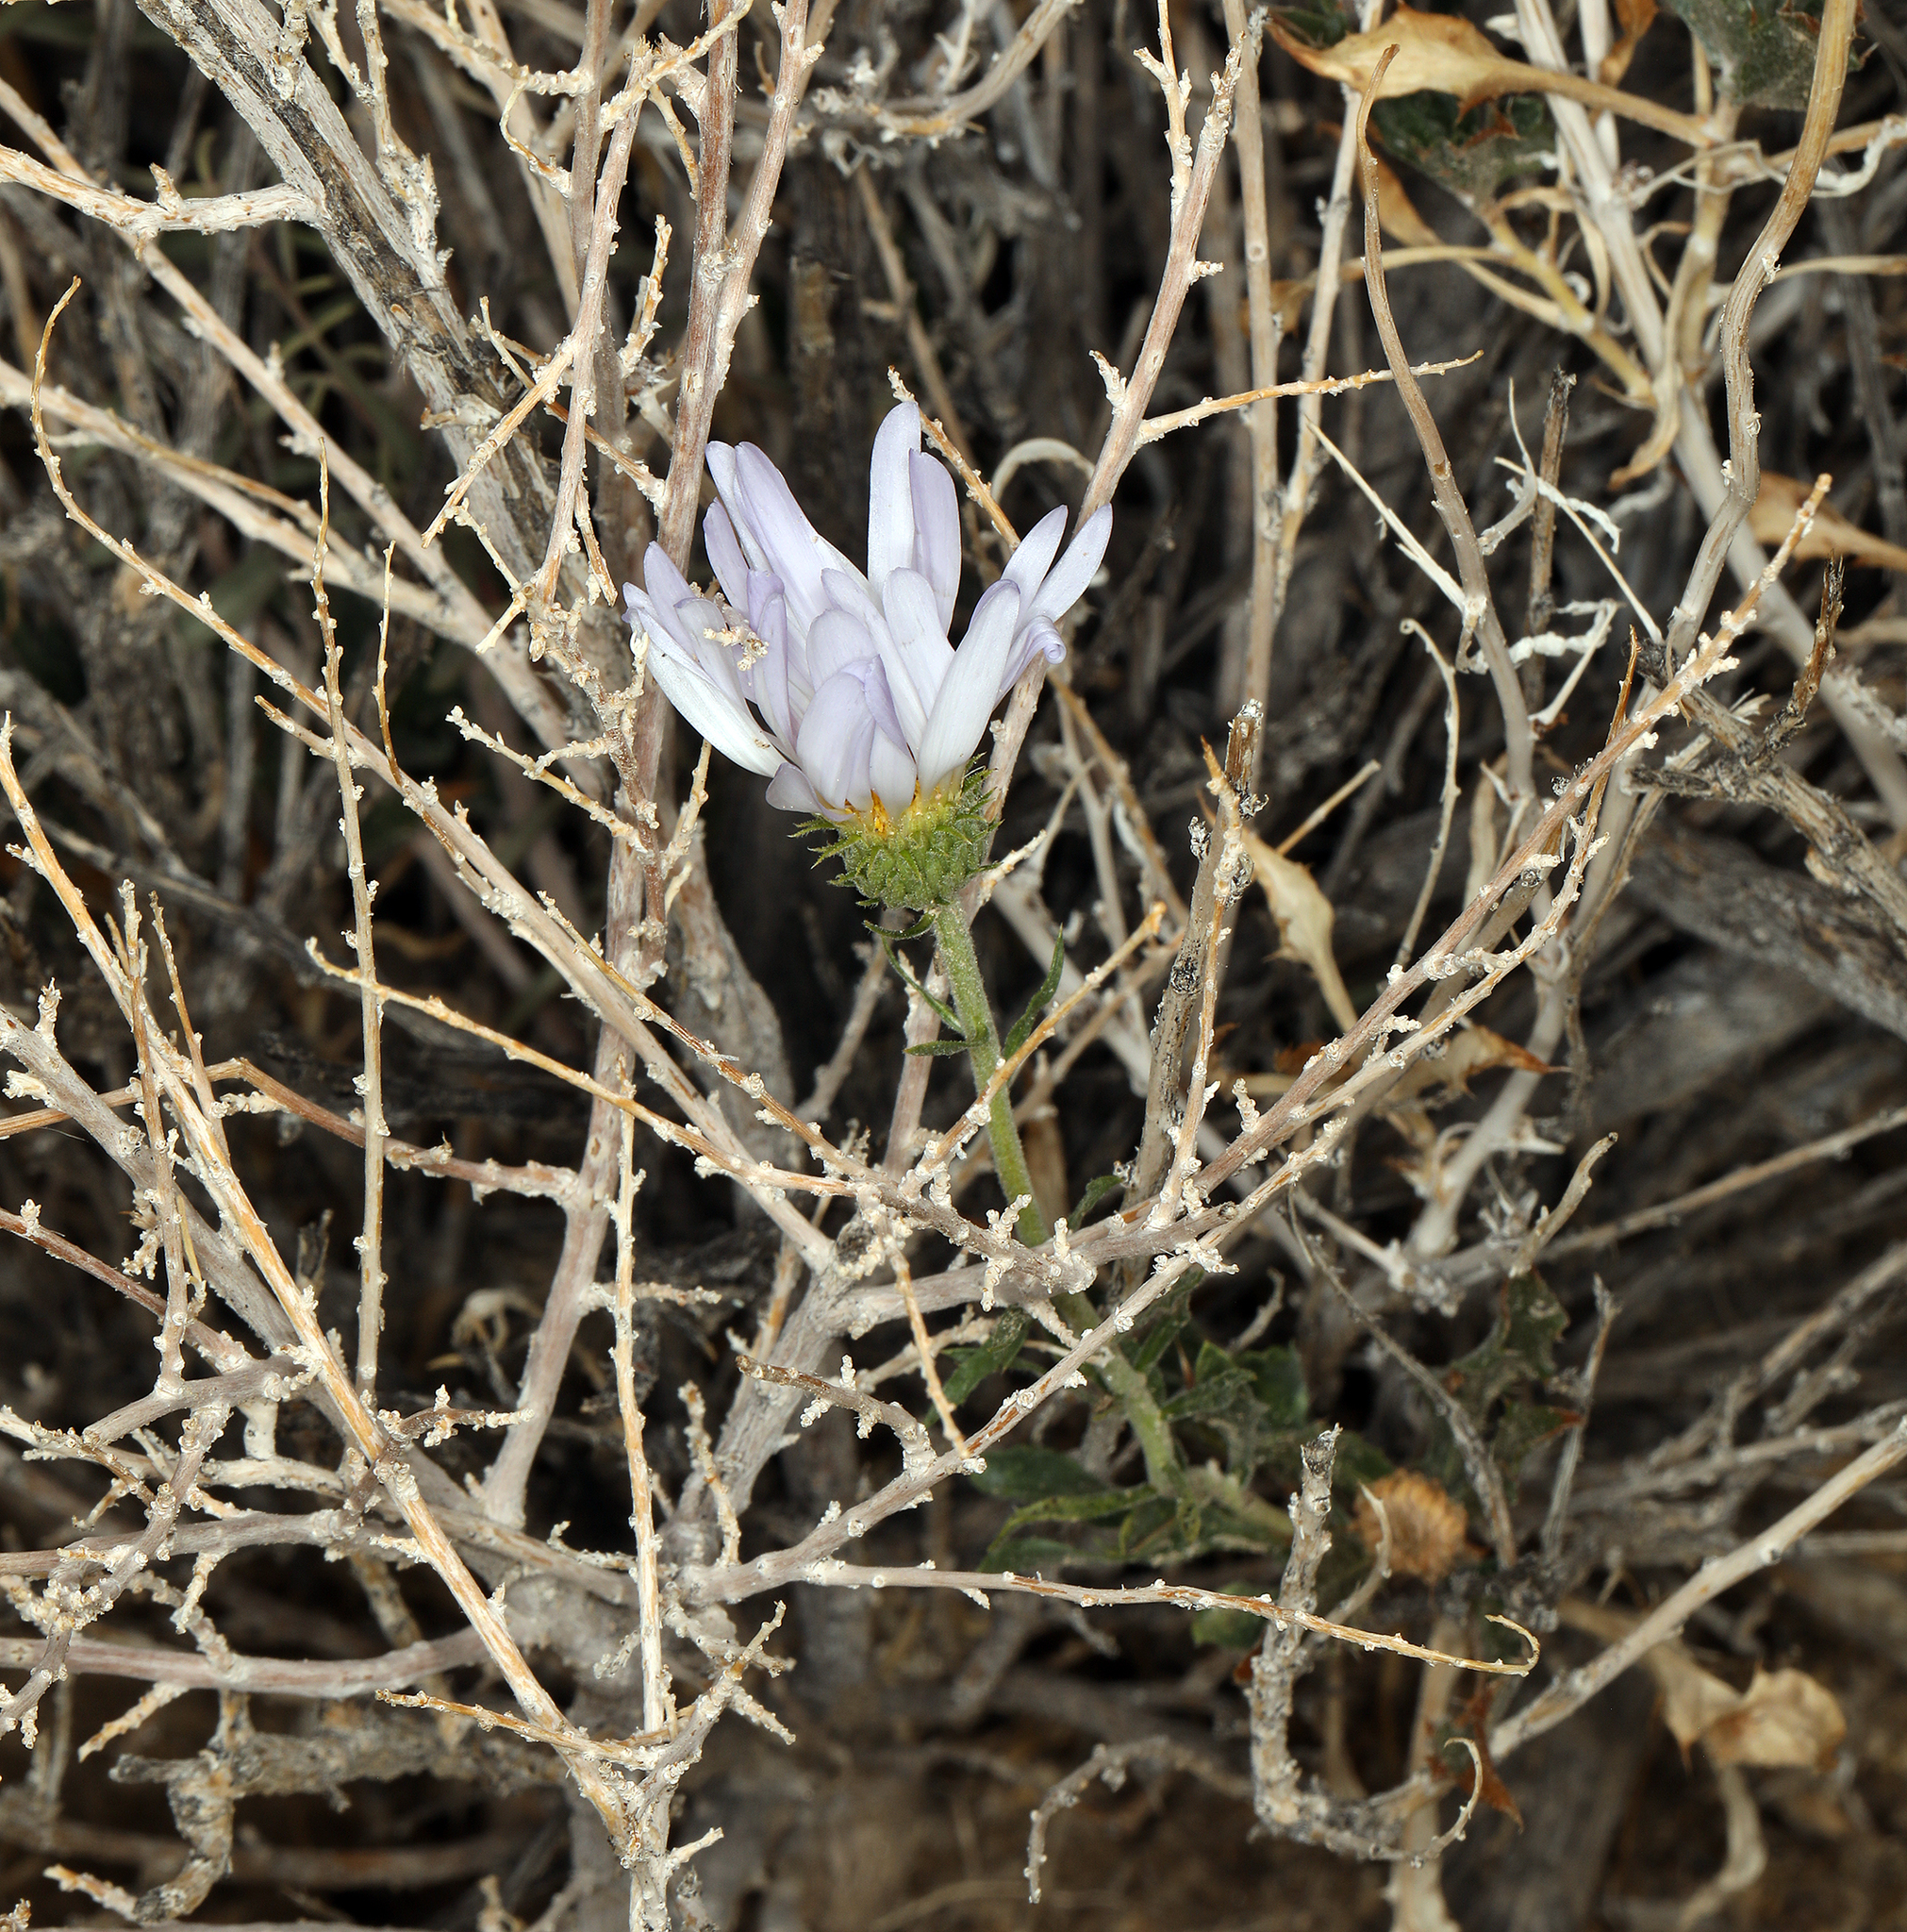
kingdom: Plantae
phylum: Tracheophyta
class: Magnoliopsida
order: Asterales
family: Asteraceae
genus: Xylorhiza
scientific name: Xylorhiza tortifolia
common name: Hurt-leaf woody-aster
